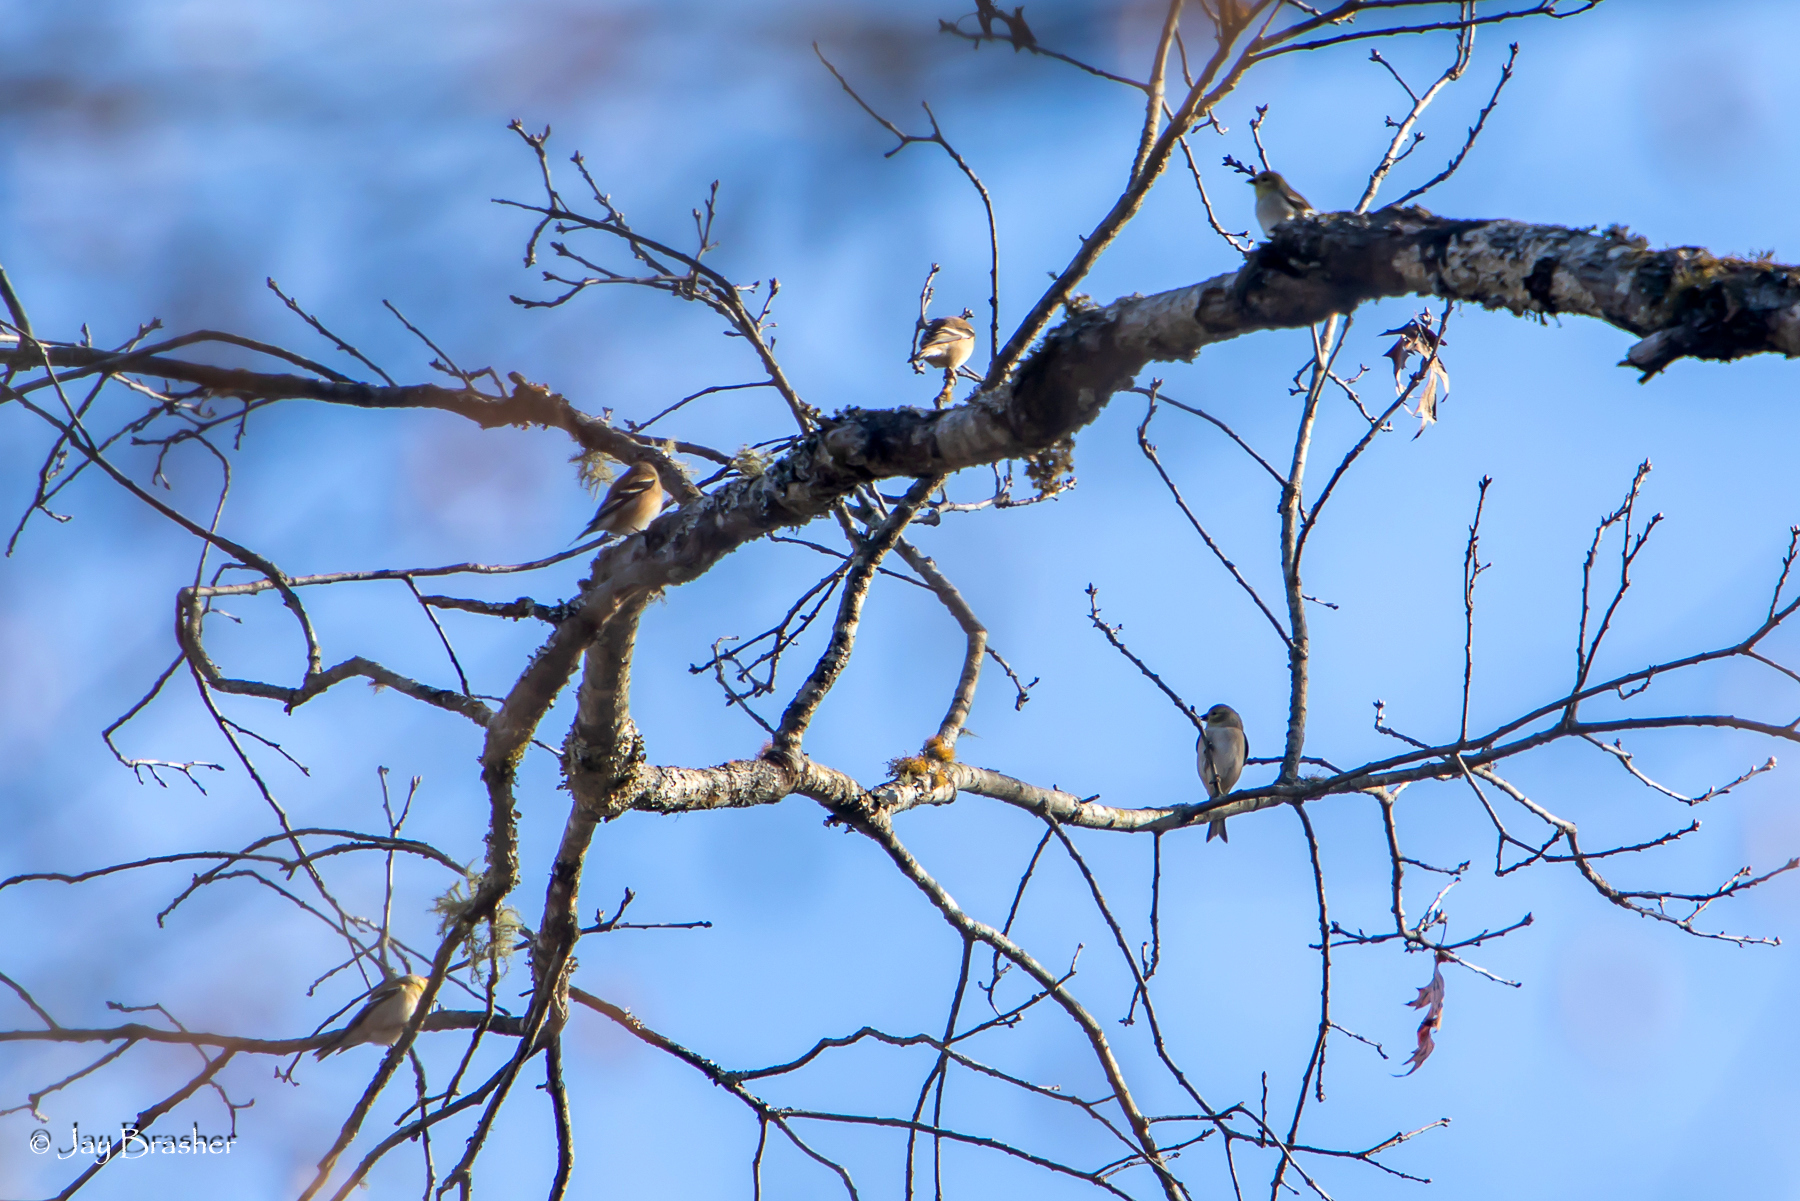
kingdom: Animalia
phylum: Chordata
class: Aves
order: Passeriformes
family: Fringillidae
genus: Spinus
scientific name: Spinus tristis
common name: American goldfinch
